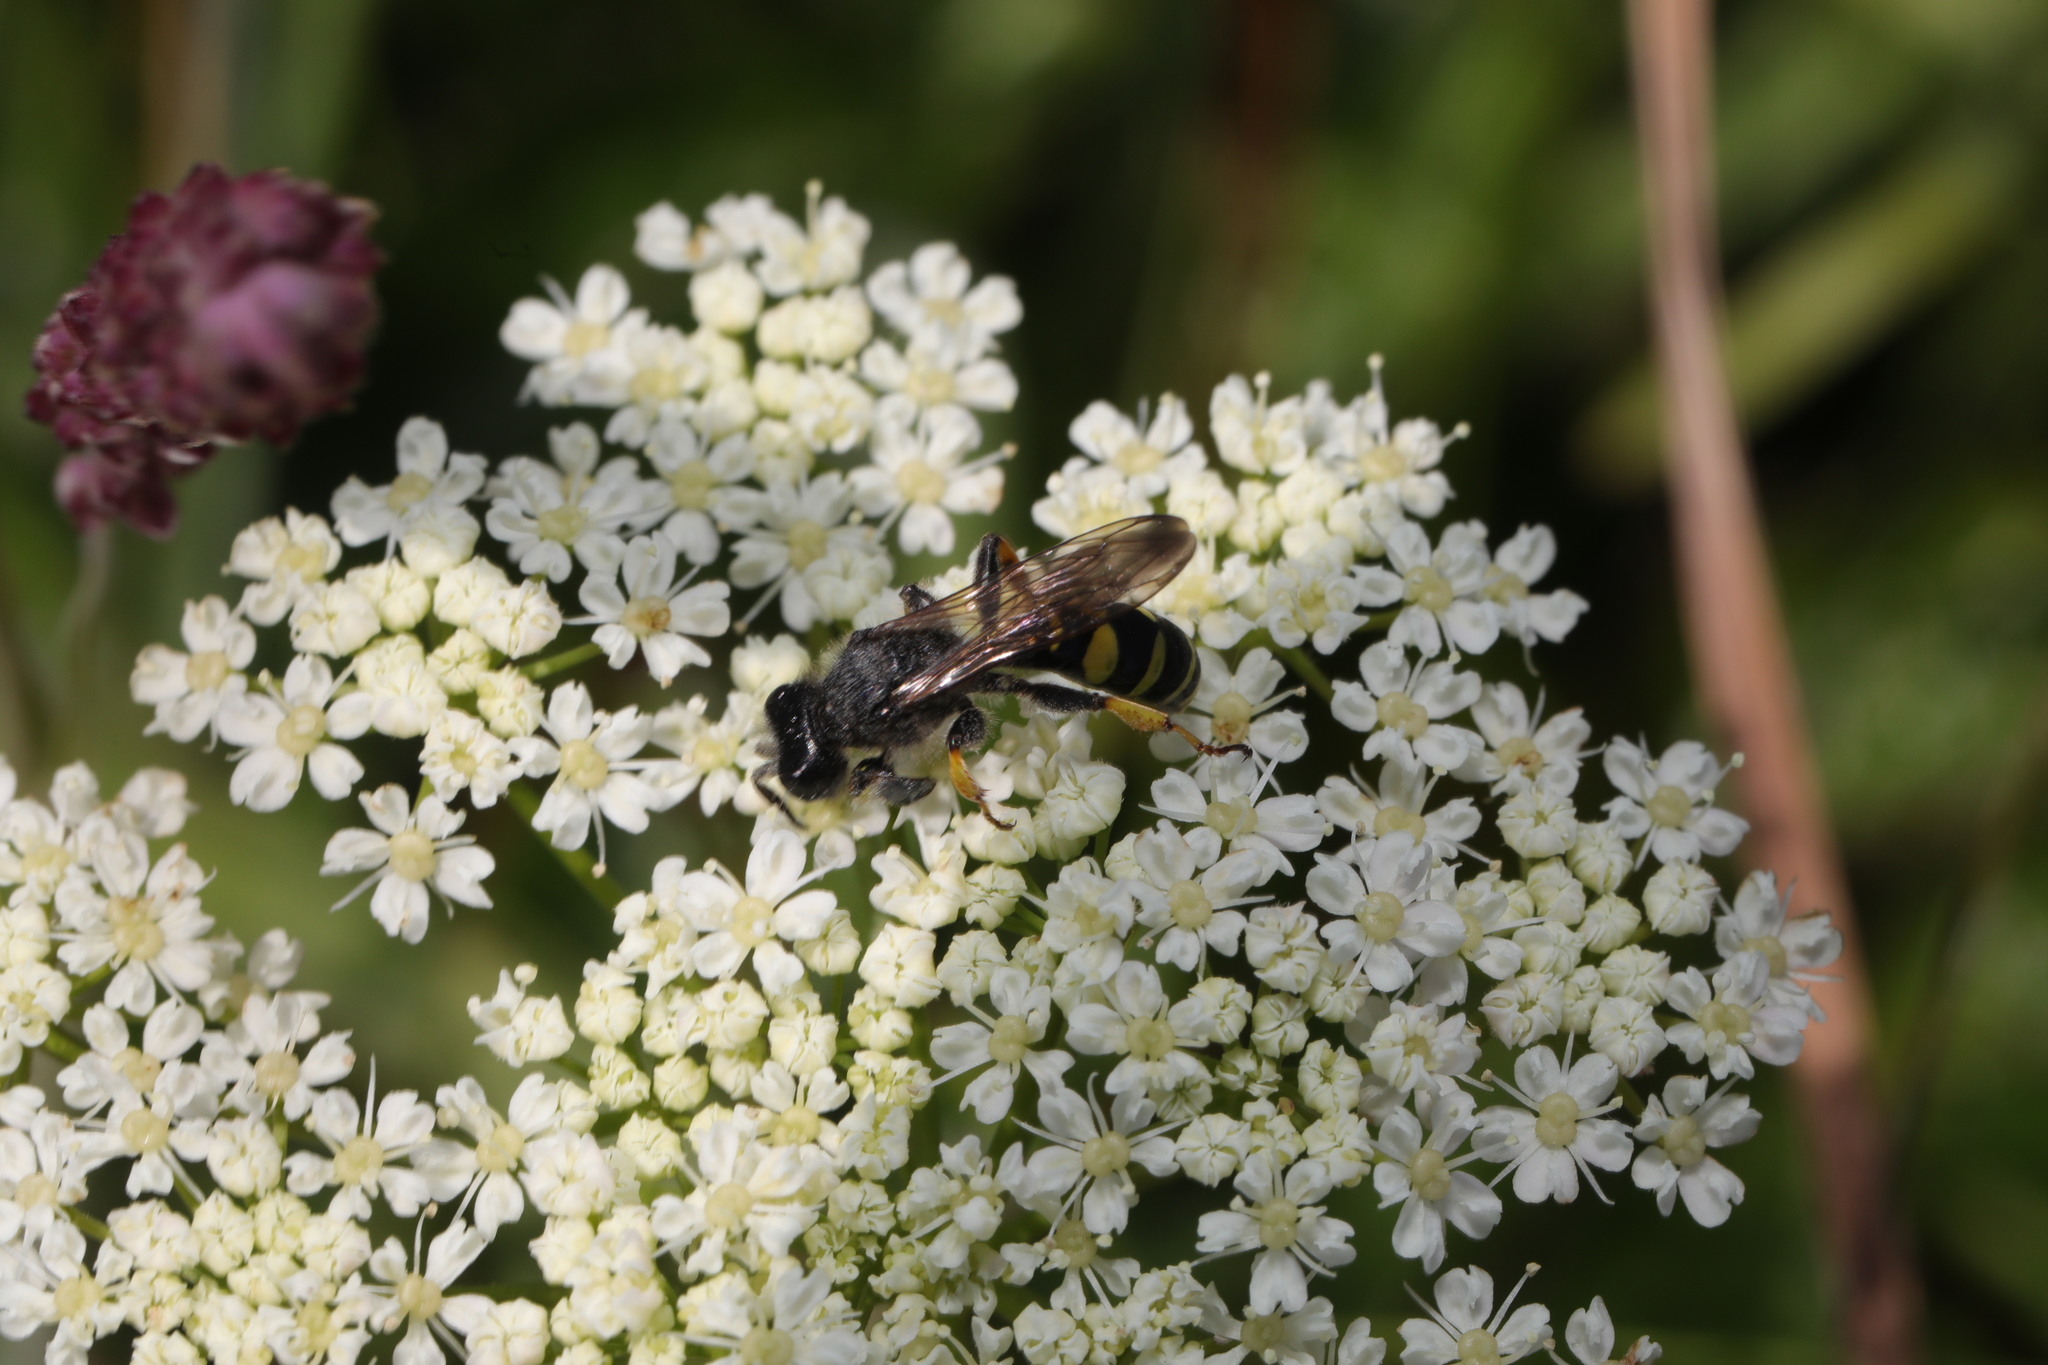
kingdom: Animalia
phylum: Arthropoda
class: Insecta
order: Hymenoptera
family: Crabronidae
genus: Crabro
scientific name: Crabro cribrarius
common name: Slender bodied digger wasp
